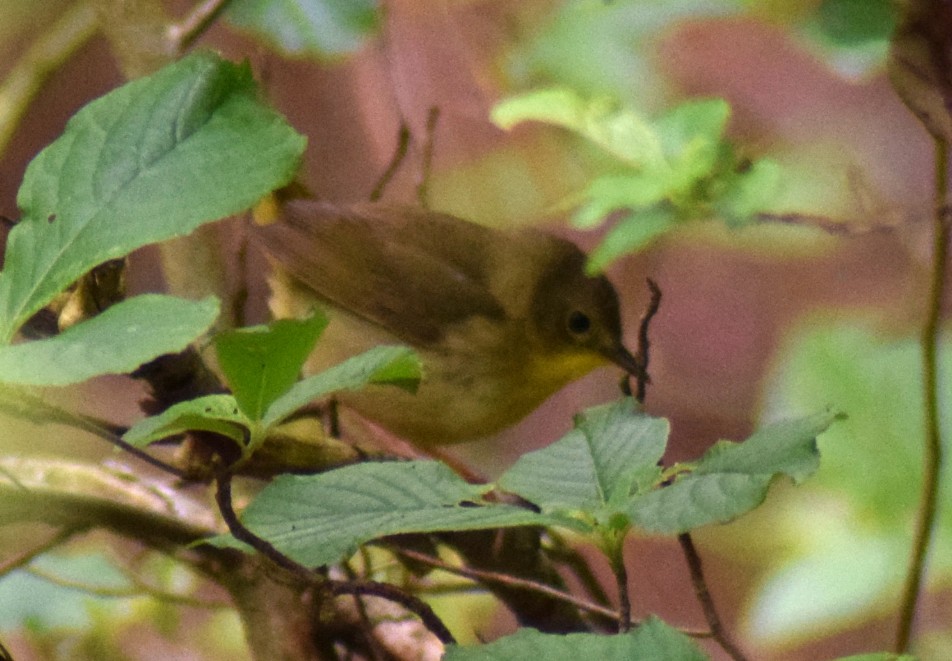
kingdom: Animalia
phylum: Chordata
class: Aves
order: Passeriformes
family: Parulidae
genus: Geothlypis
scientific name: Geothlypis trichas
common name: Common yellowthroat
